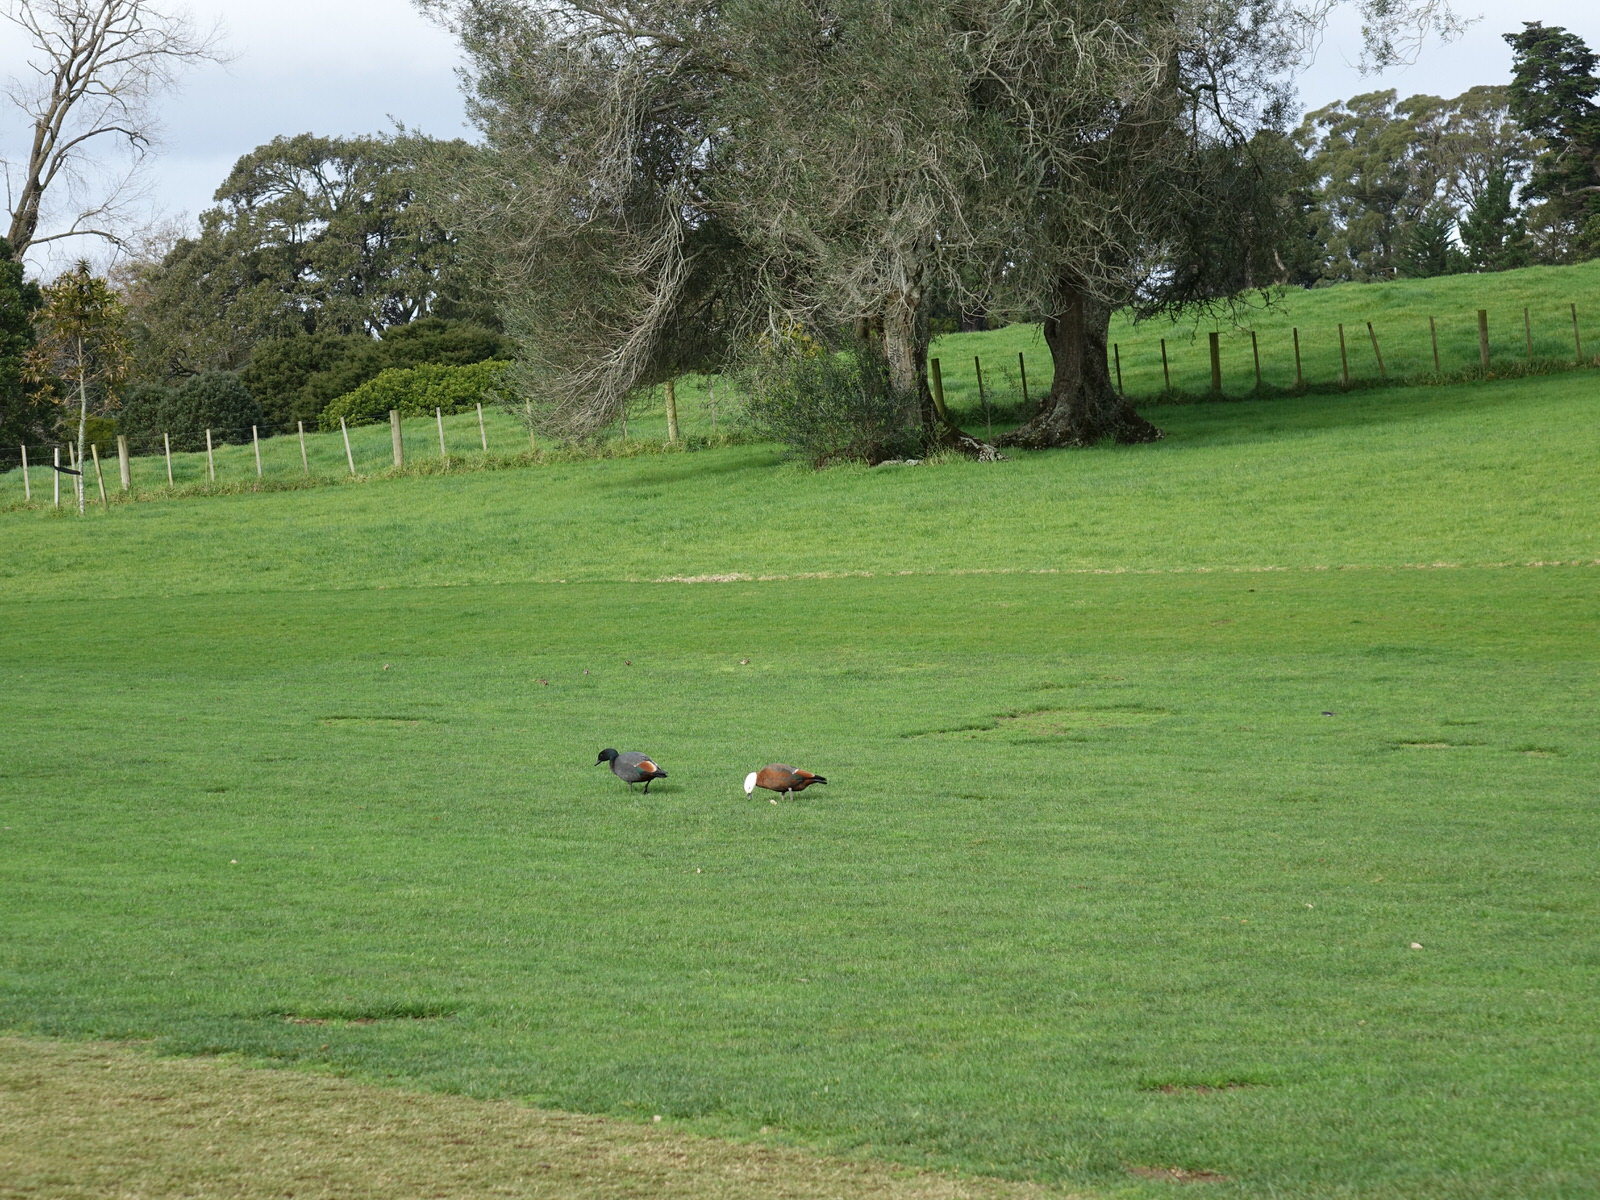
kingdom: Animalia
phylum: Chordata
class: Aves
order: Anseriformes
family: Anatidae
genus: Tadorna
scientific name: Tadorna variegata
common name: Paradise shelduck
